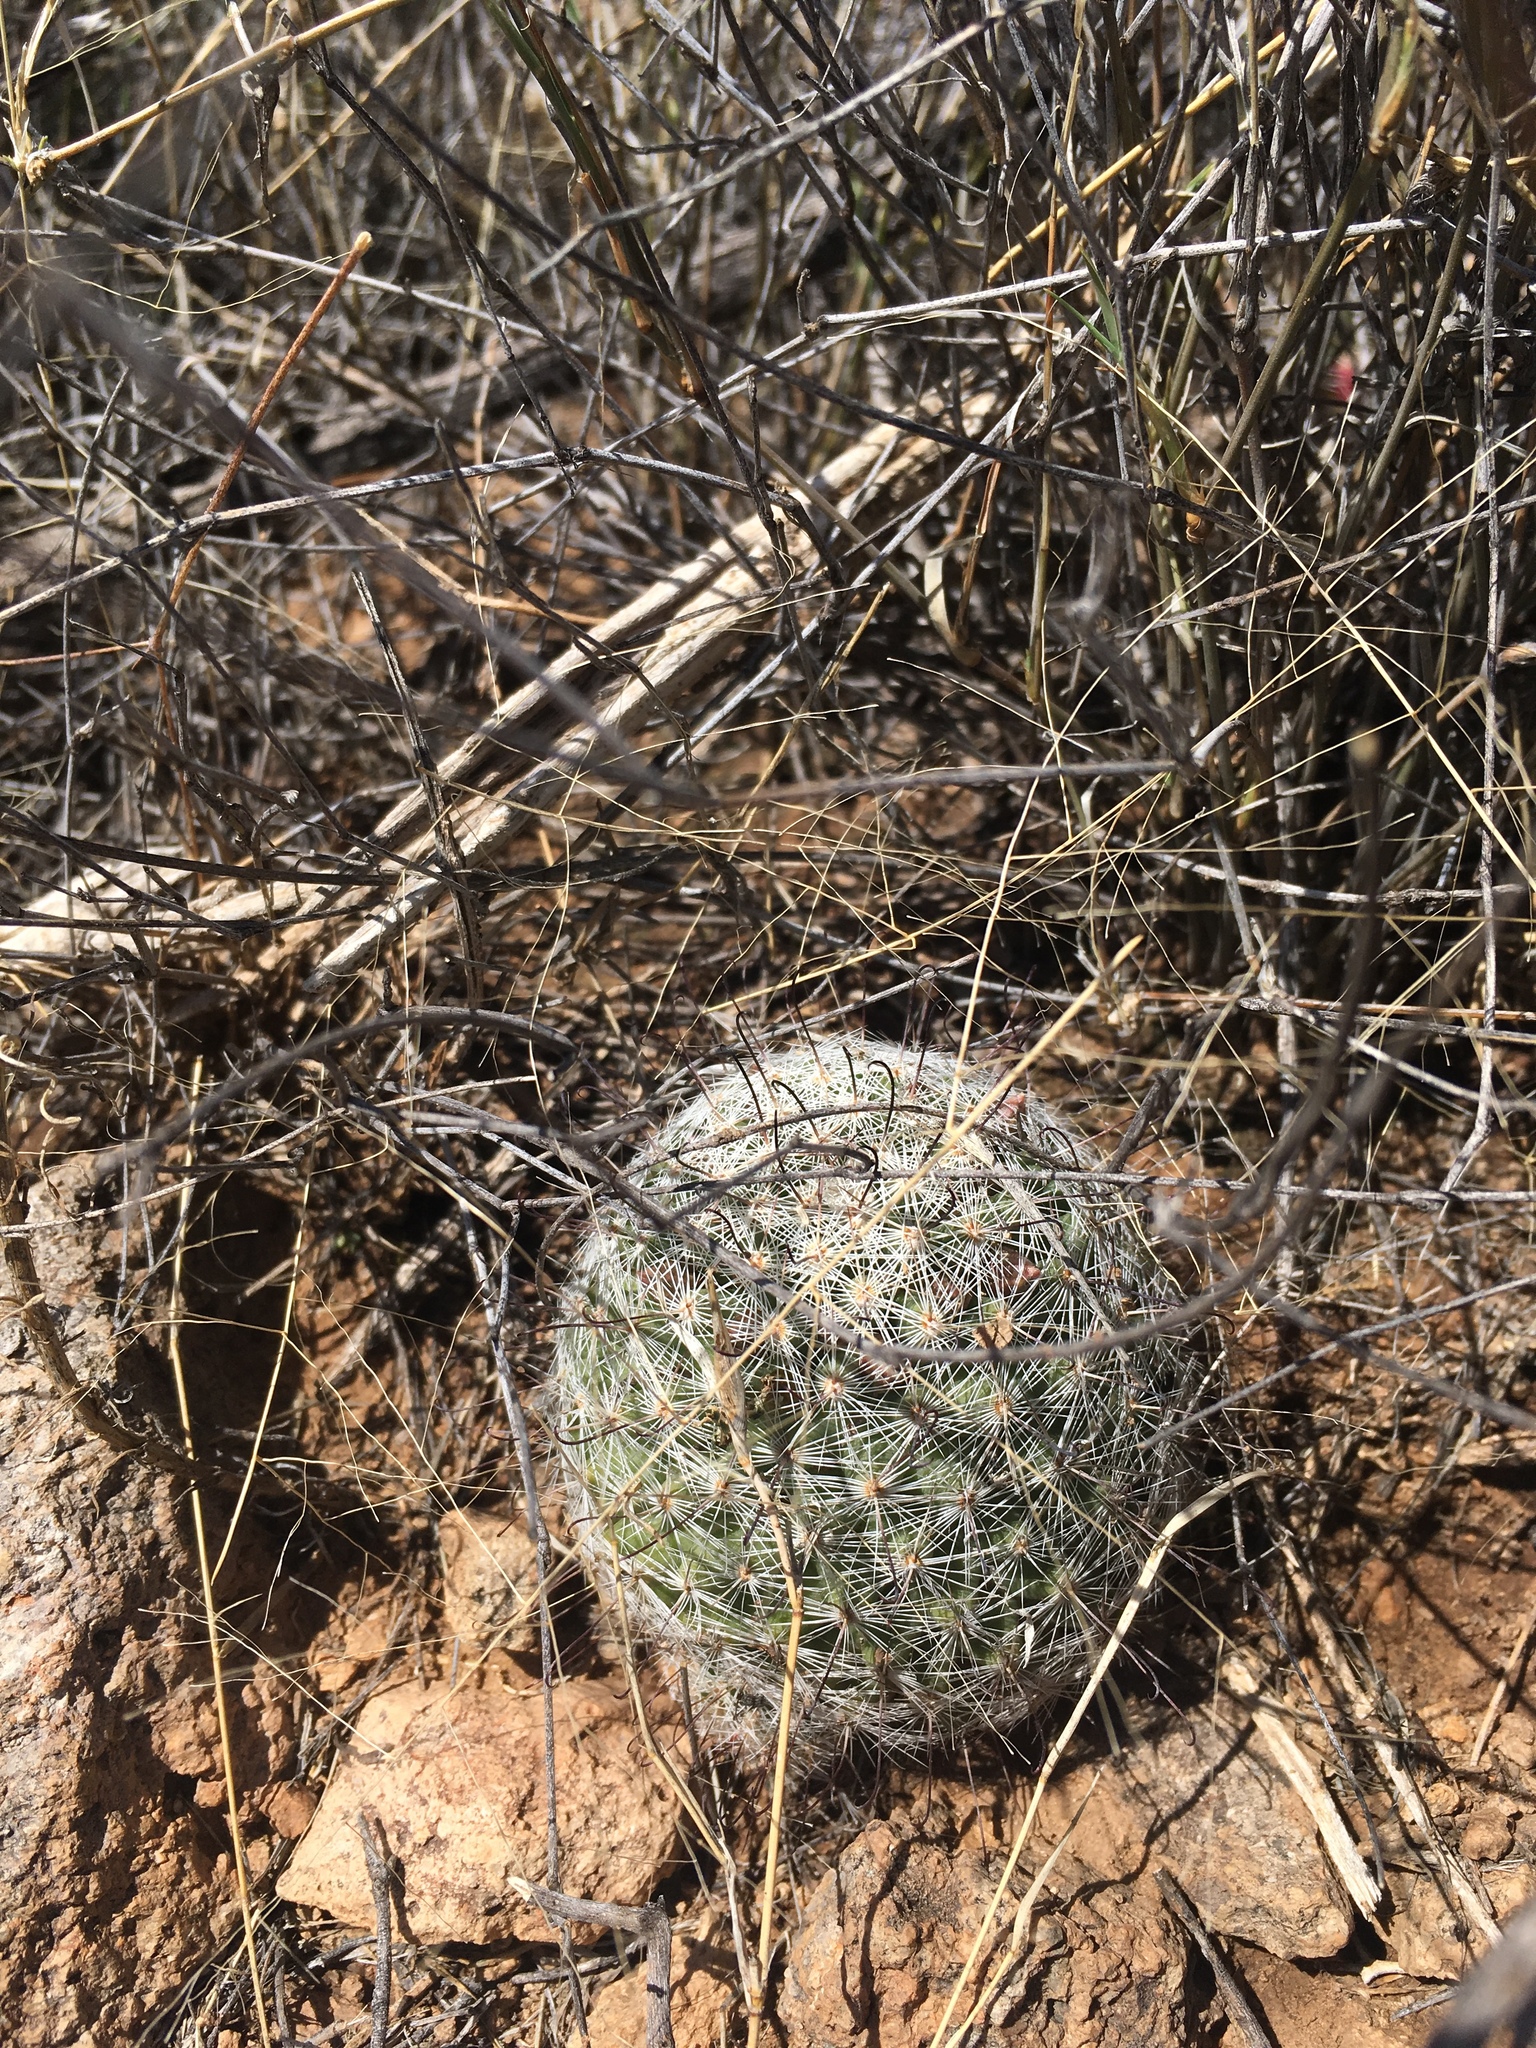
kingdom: Plantae
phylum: Tracheophyta
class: Magnoliopsida
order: Caryophyllales
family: Cactaceae
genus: Cochemiea
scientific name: Cochemiea grahamii
